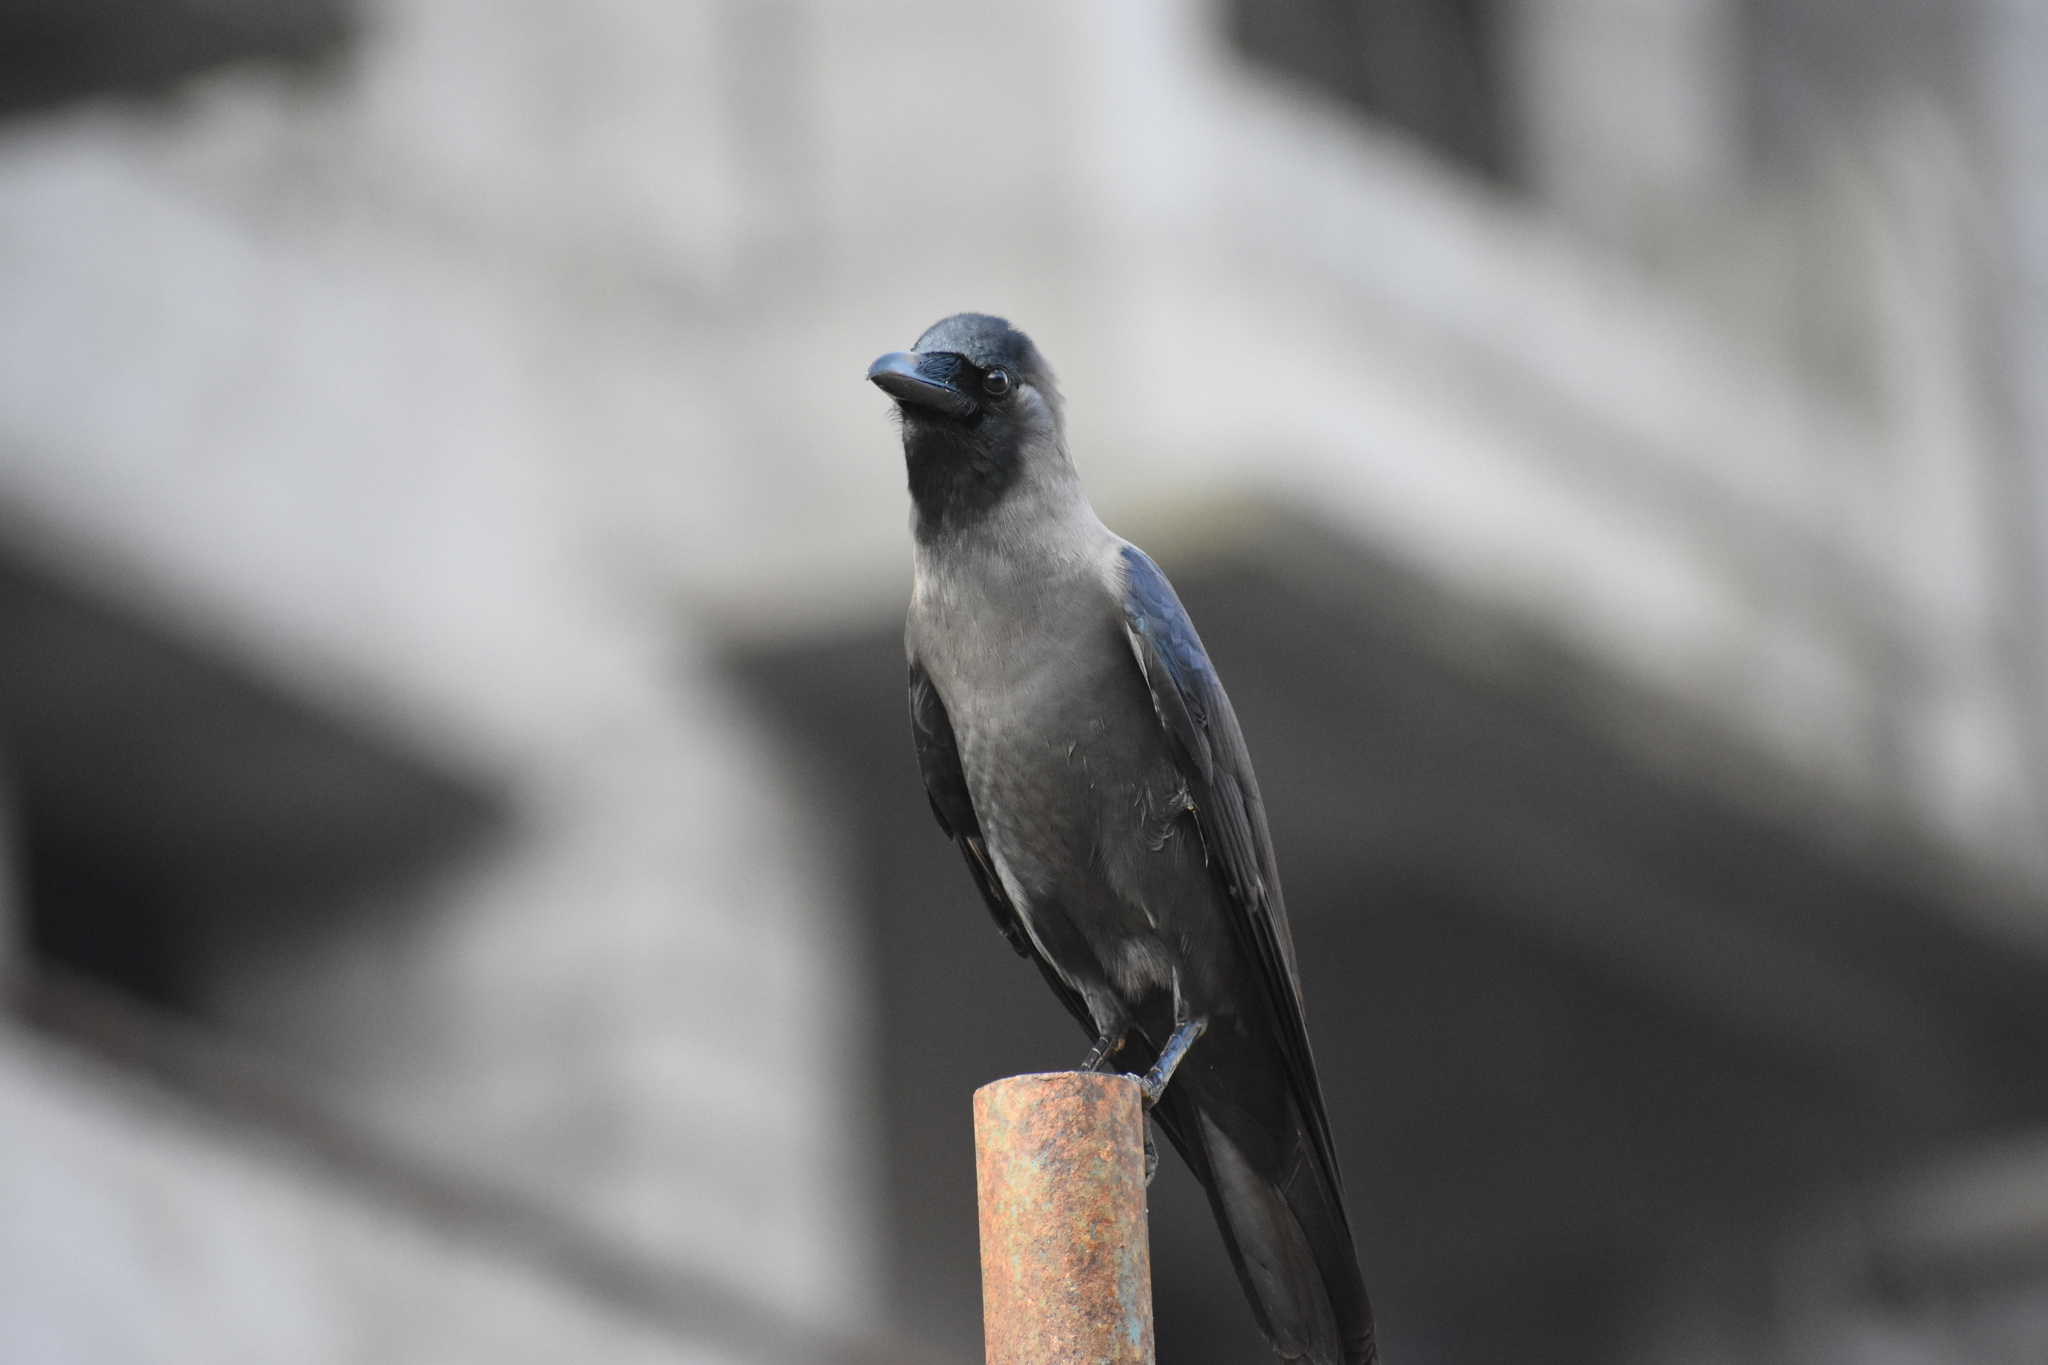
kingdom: Animalia
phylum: Chordata
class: Aves
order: Passeriformes
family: Corvidae
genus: Corvus
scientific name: Corvus splendens
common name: House crow
